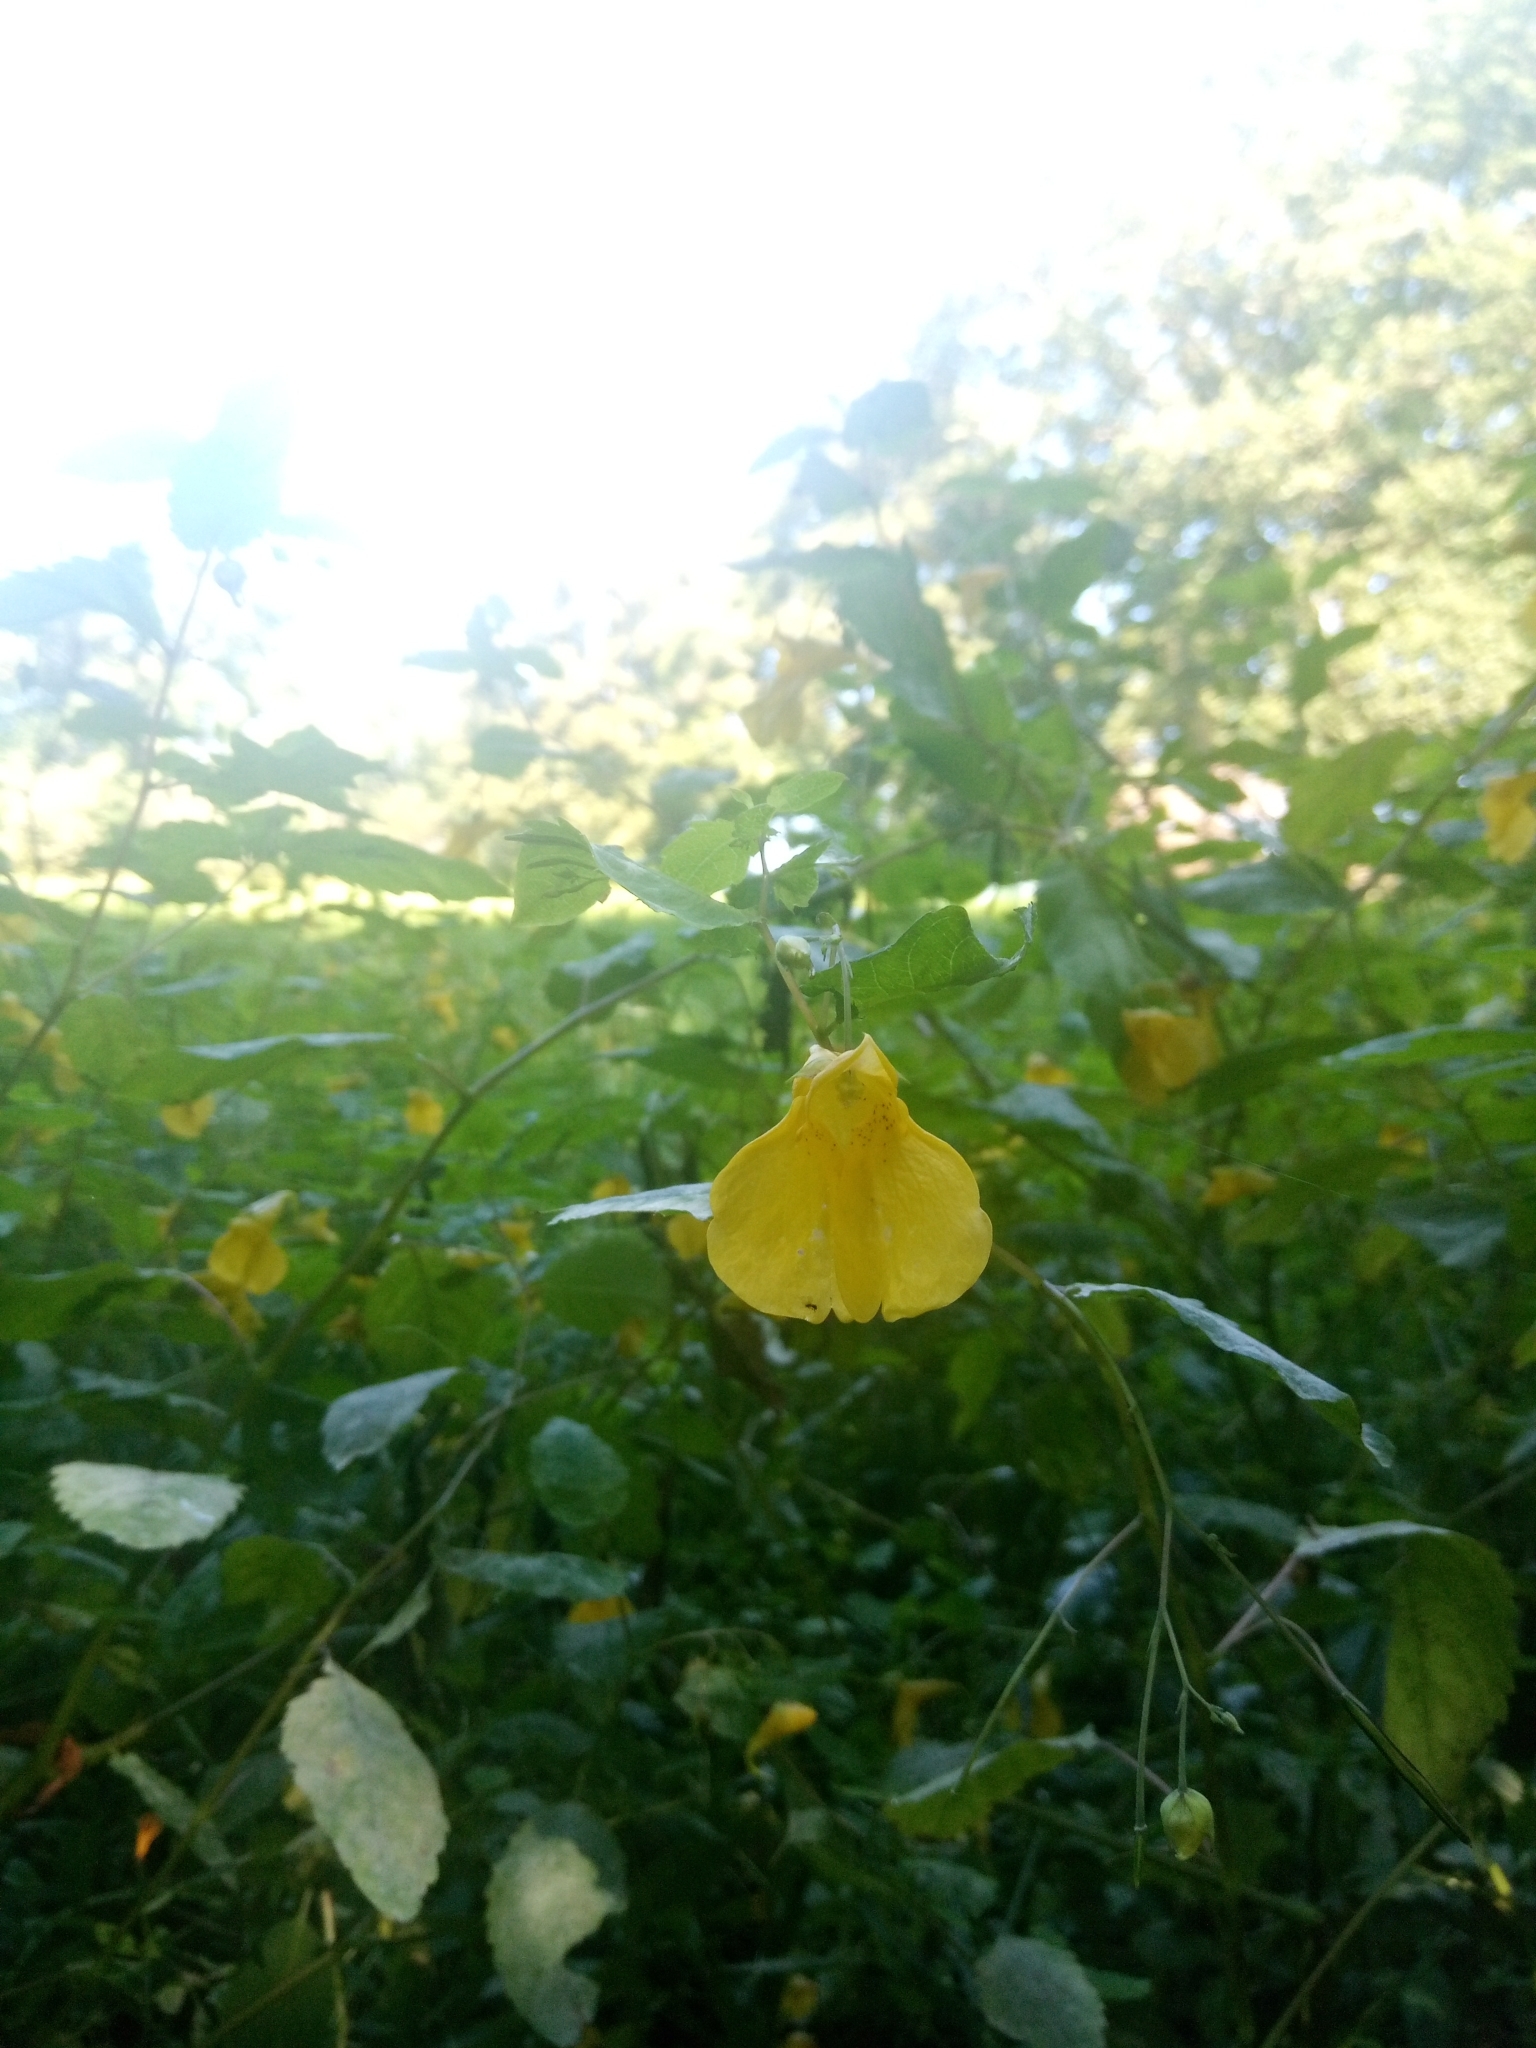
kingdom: Plantae
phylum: Tracheophyta
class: Magnoliopsida
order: Ericales
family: Balsaminaceae
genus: Impatiens
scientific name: Impatiens noli-tangere
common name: Touch-me-not balsam
